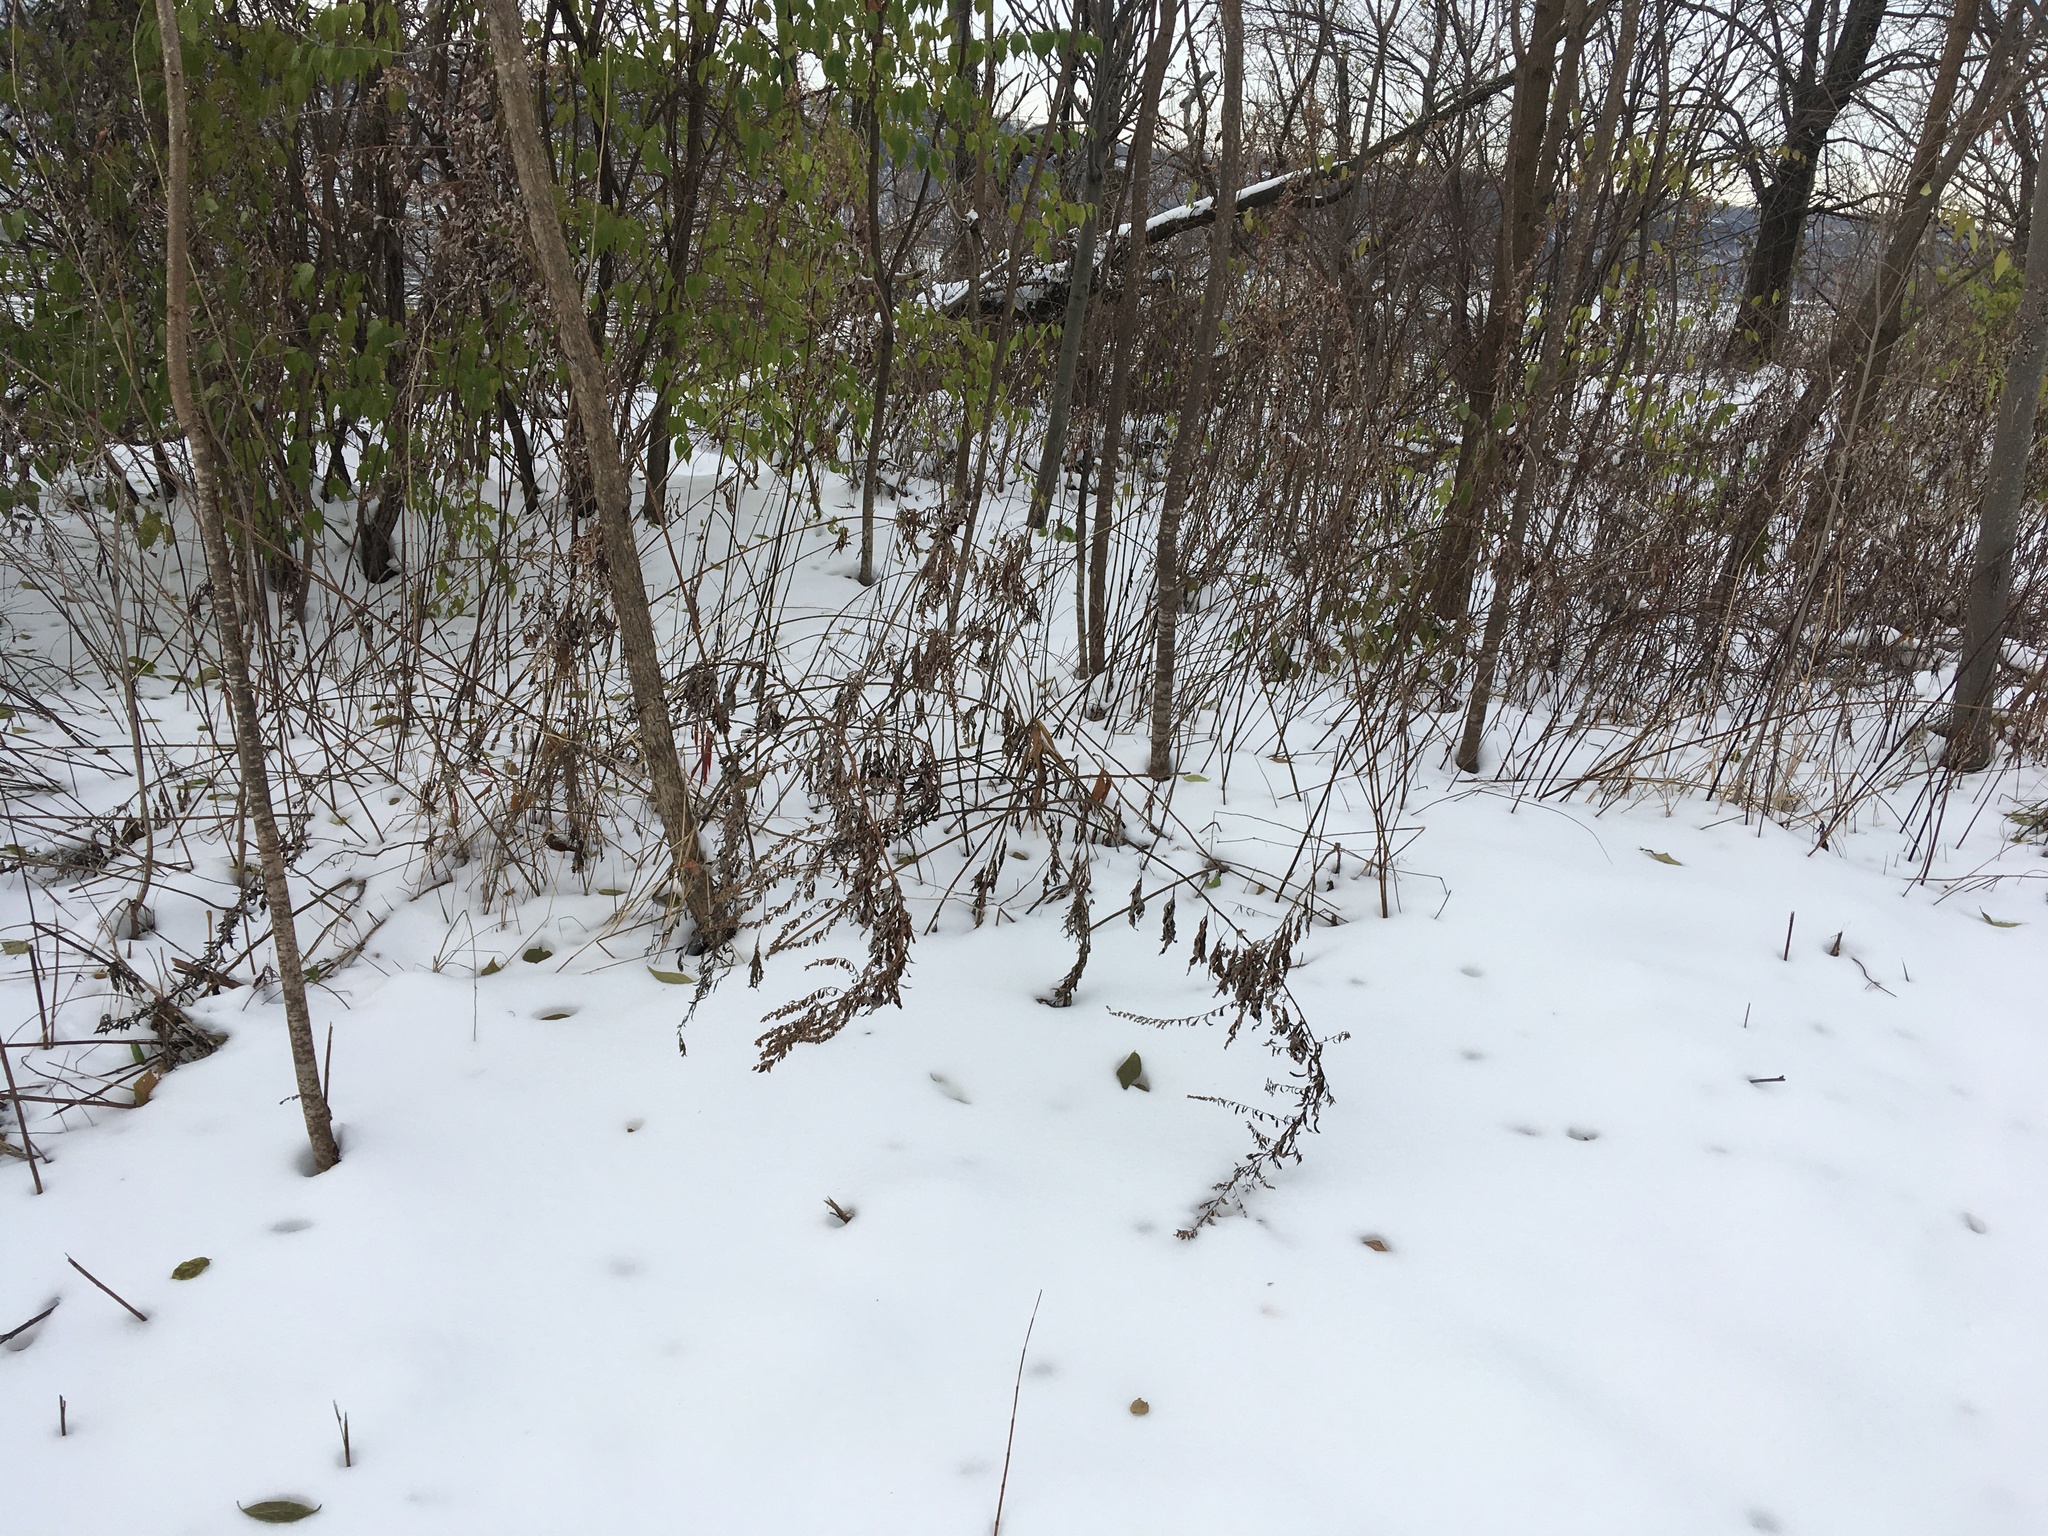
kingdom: Plantae
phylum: Tracheophyta
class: Magnoliopsida
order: Asterales
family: Asteraceae
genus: Artemisia
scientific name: Artemisia vulgaris
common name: Mugwort
